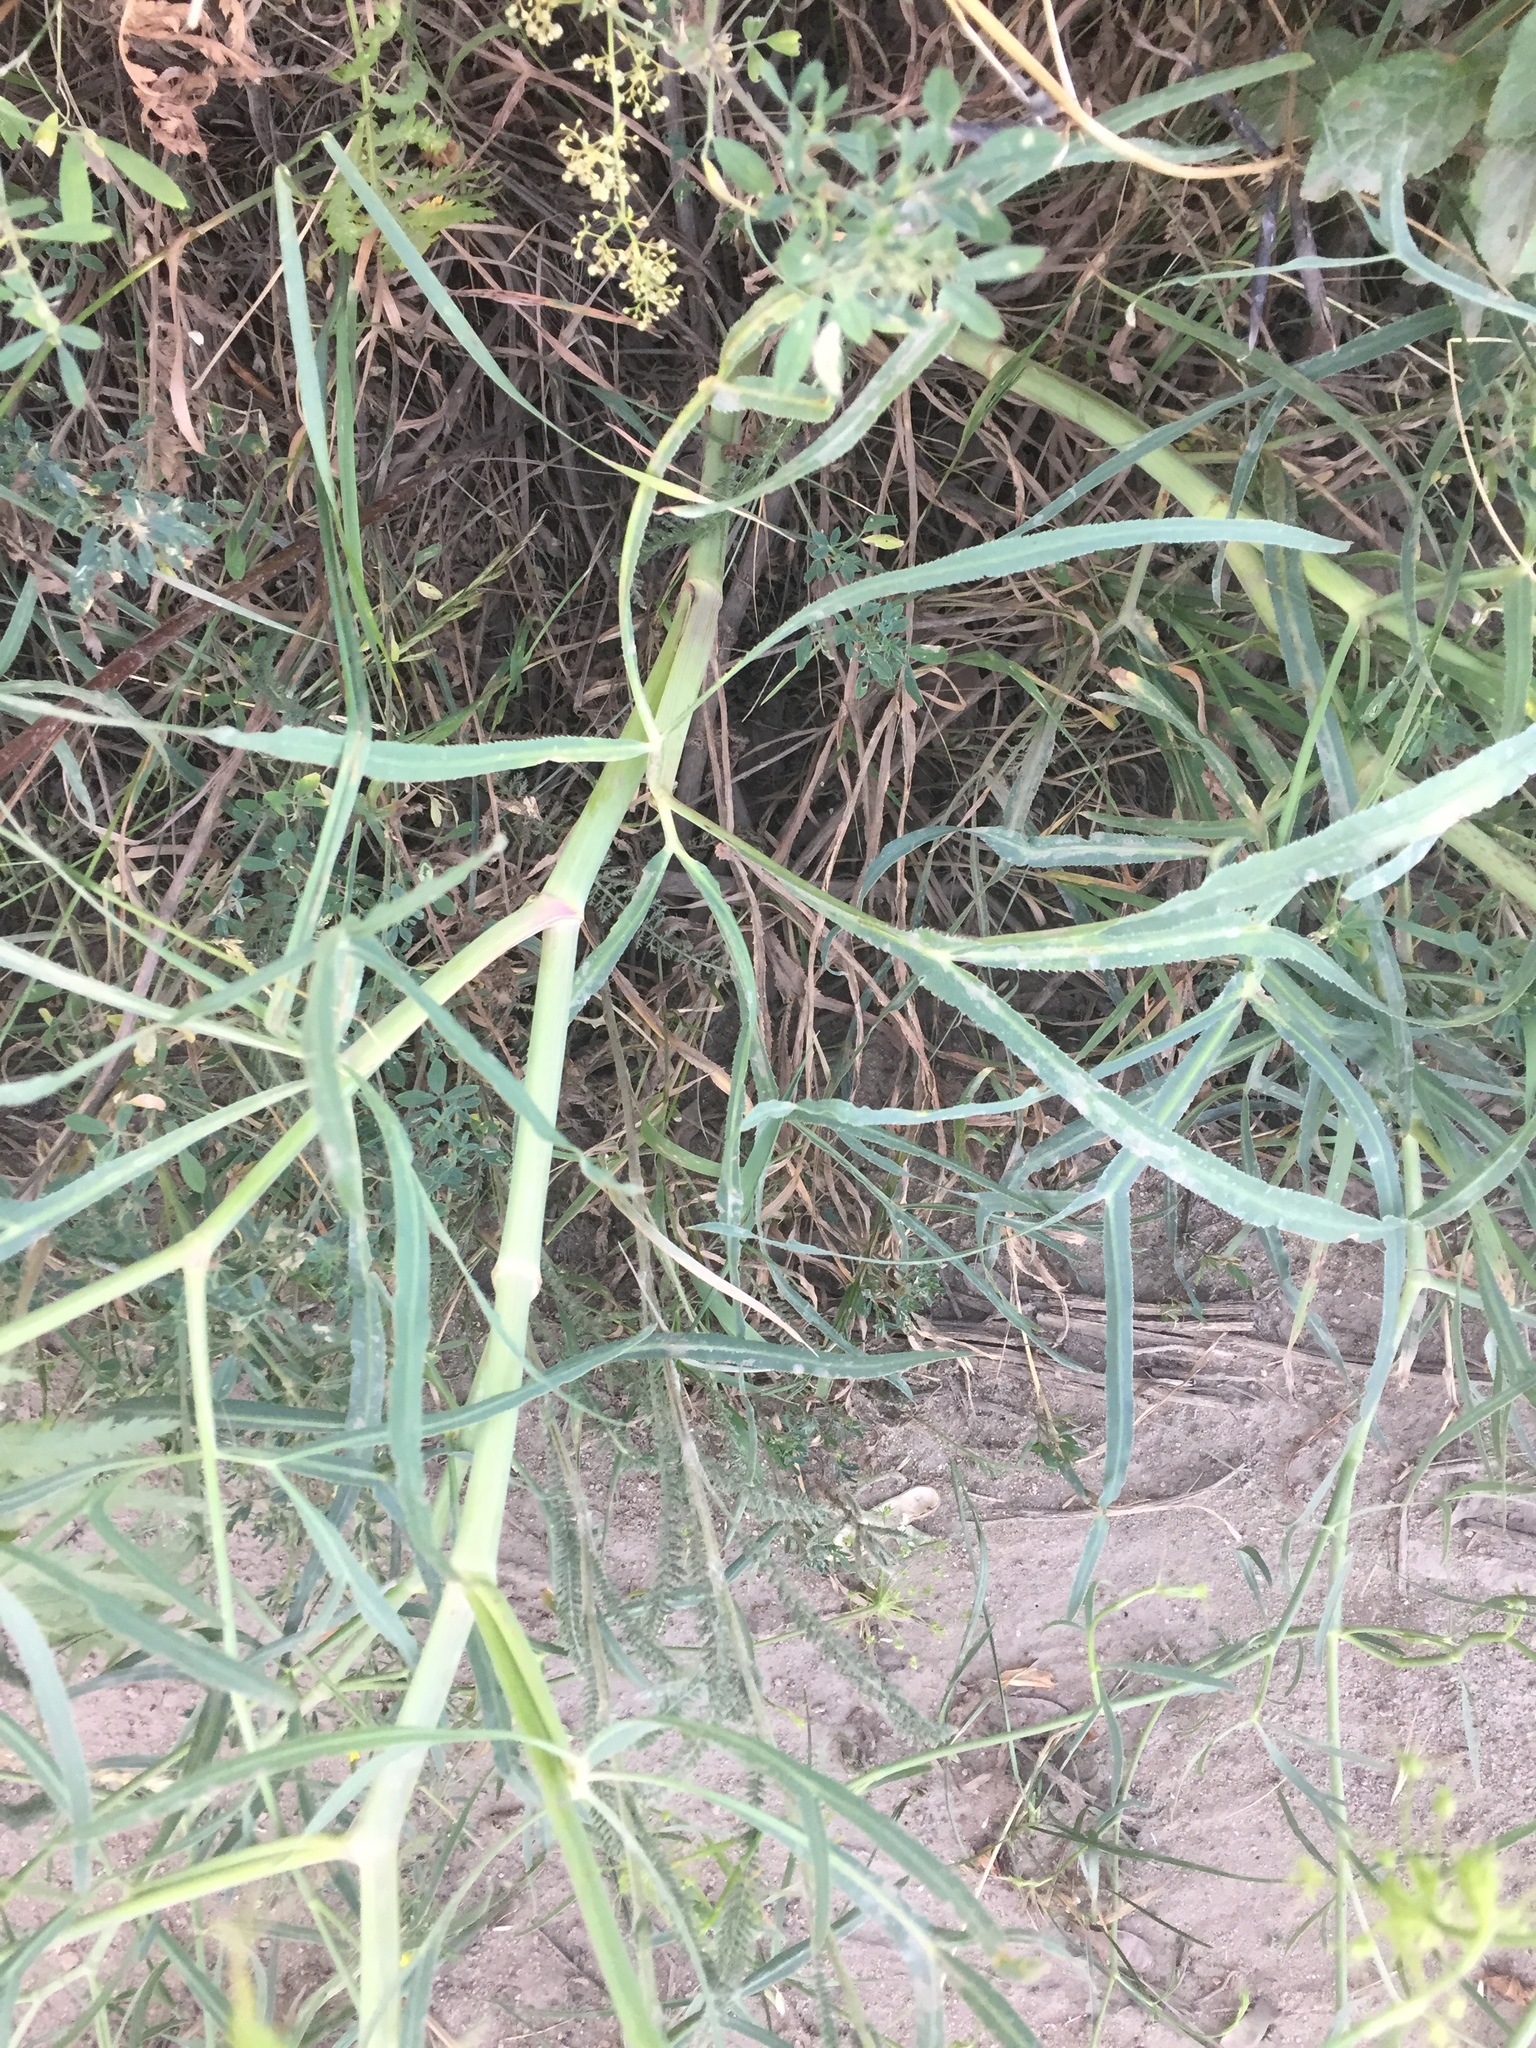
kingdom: Plantae
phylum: Tracheophyta
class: Magnoliopsida
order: Apiales
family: Apiaceae
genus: Falcaria
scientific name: Falcaria vulgaris
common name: Longleaf
